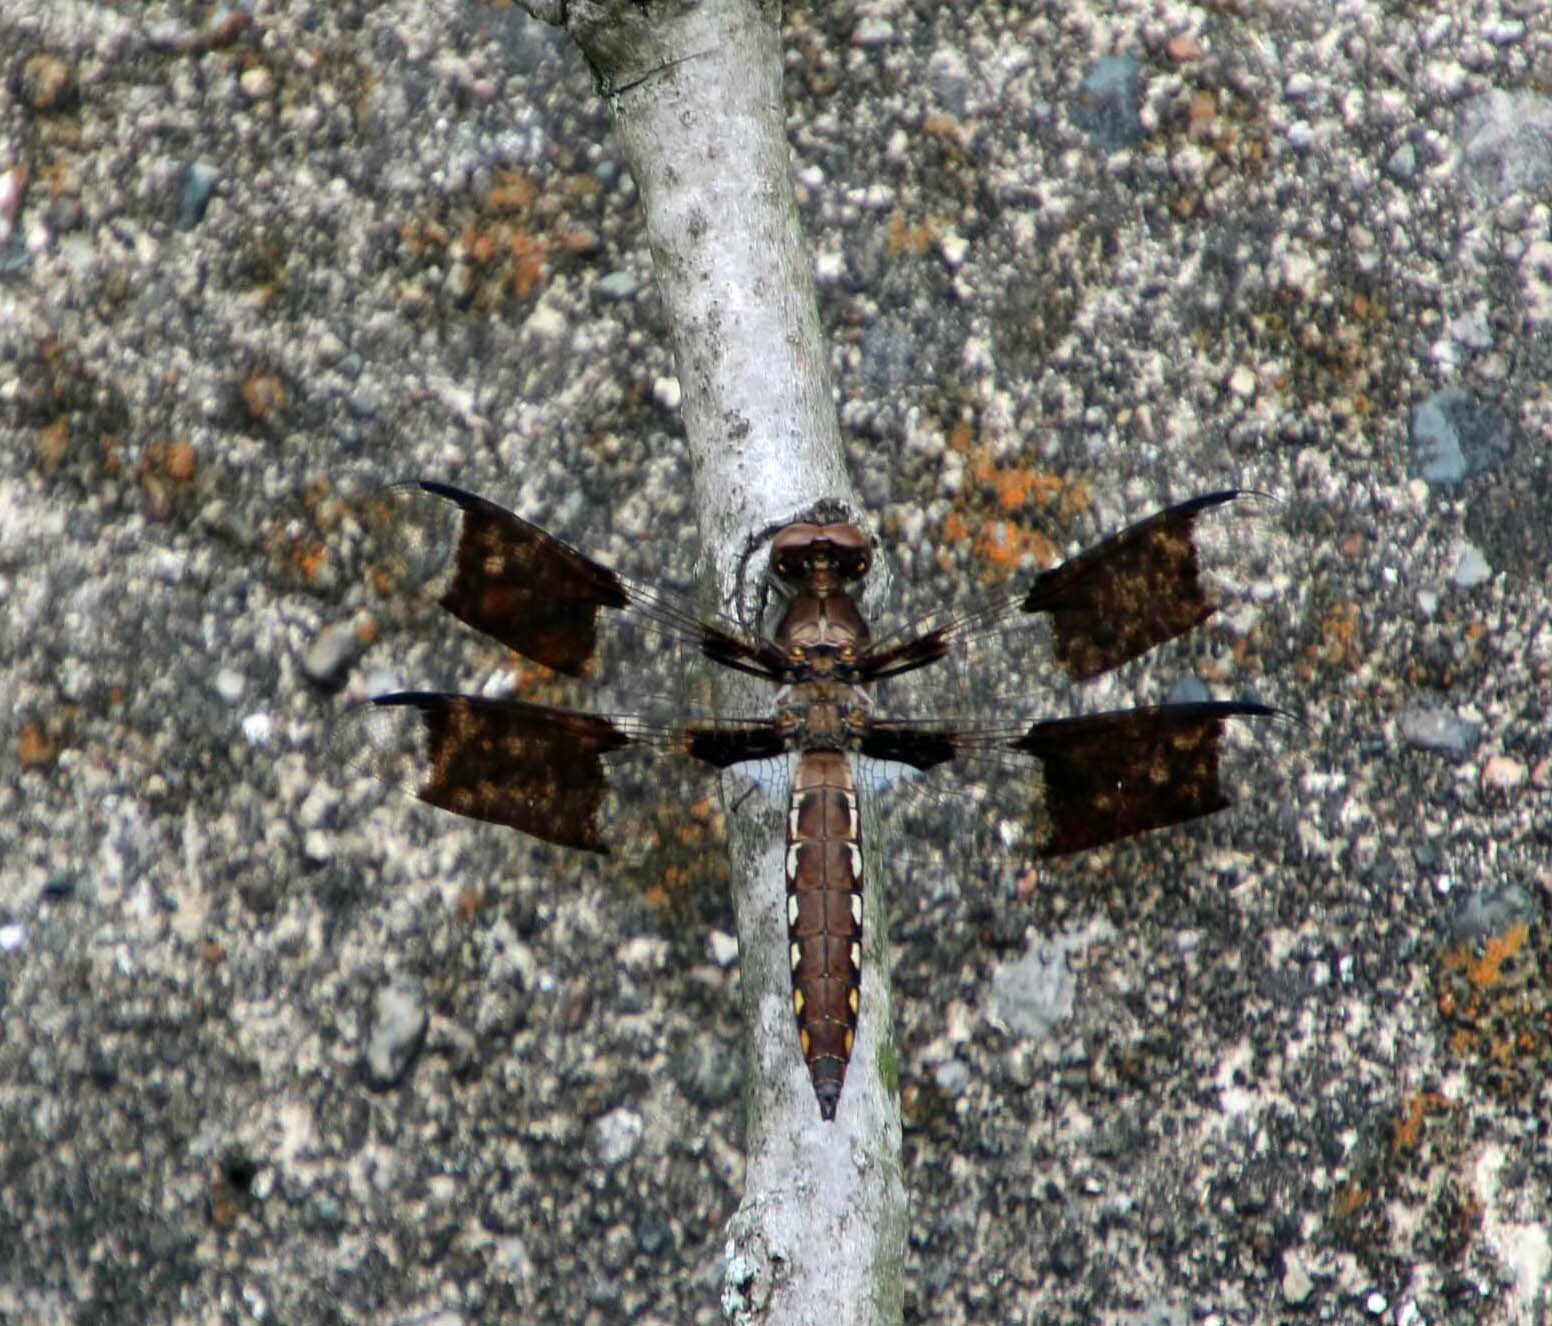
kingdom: Animalia
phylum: Arthropoda
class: Insecta
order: Odonata
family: Libellulidae
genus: Plathemis
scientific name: Plathemis lydia
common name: Common whitetail
